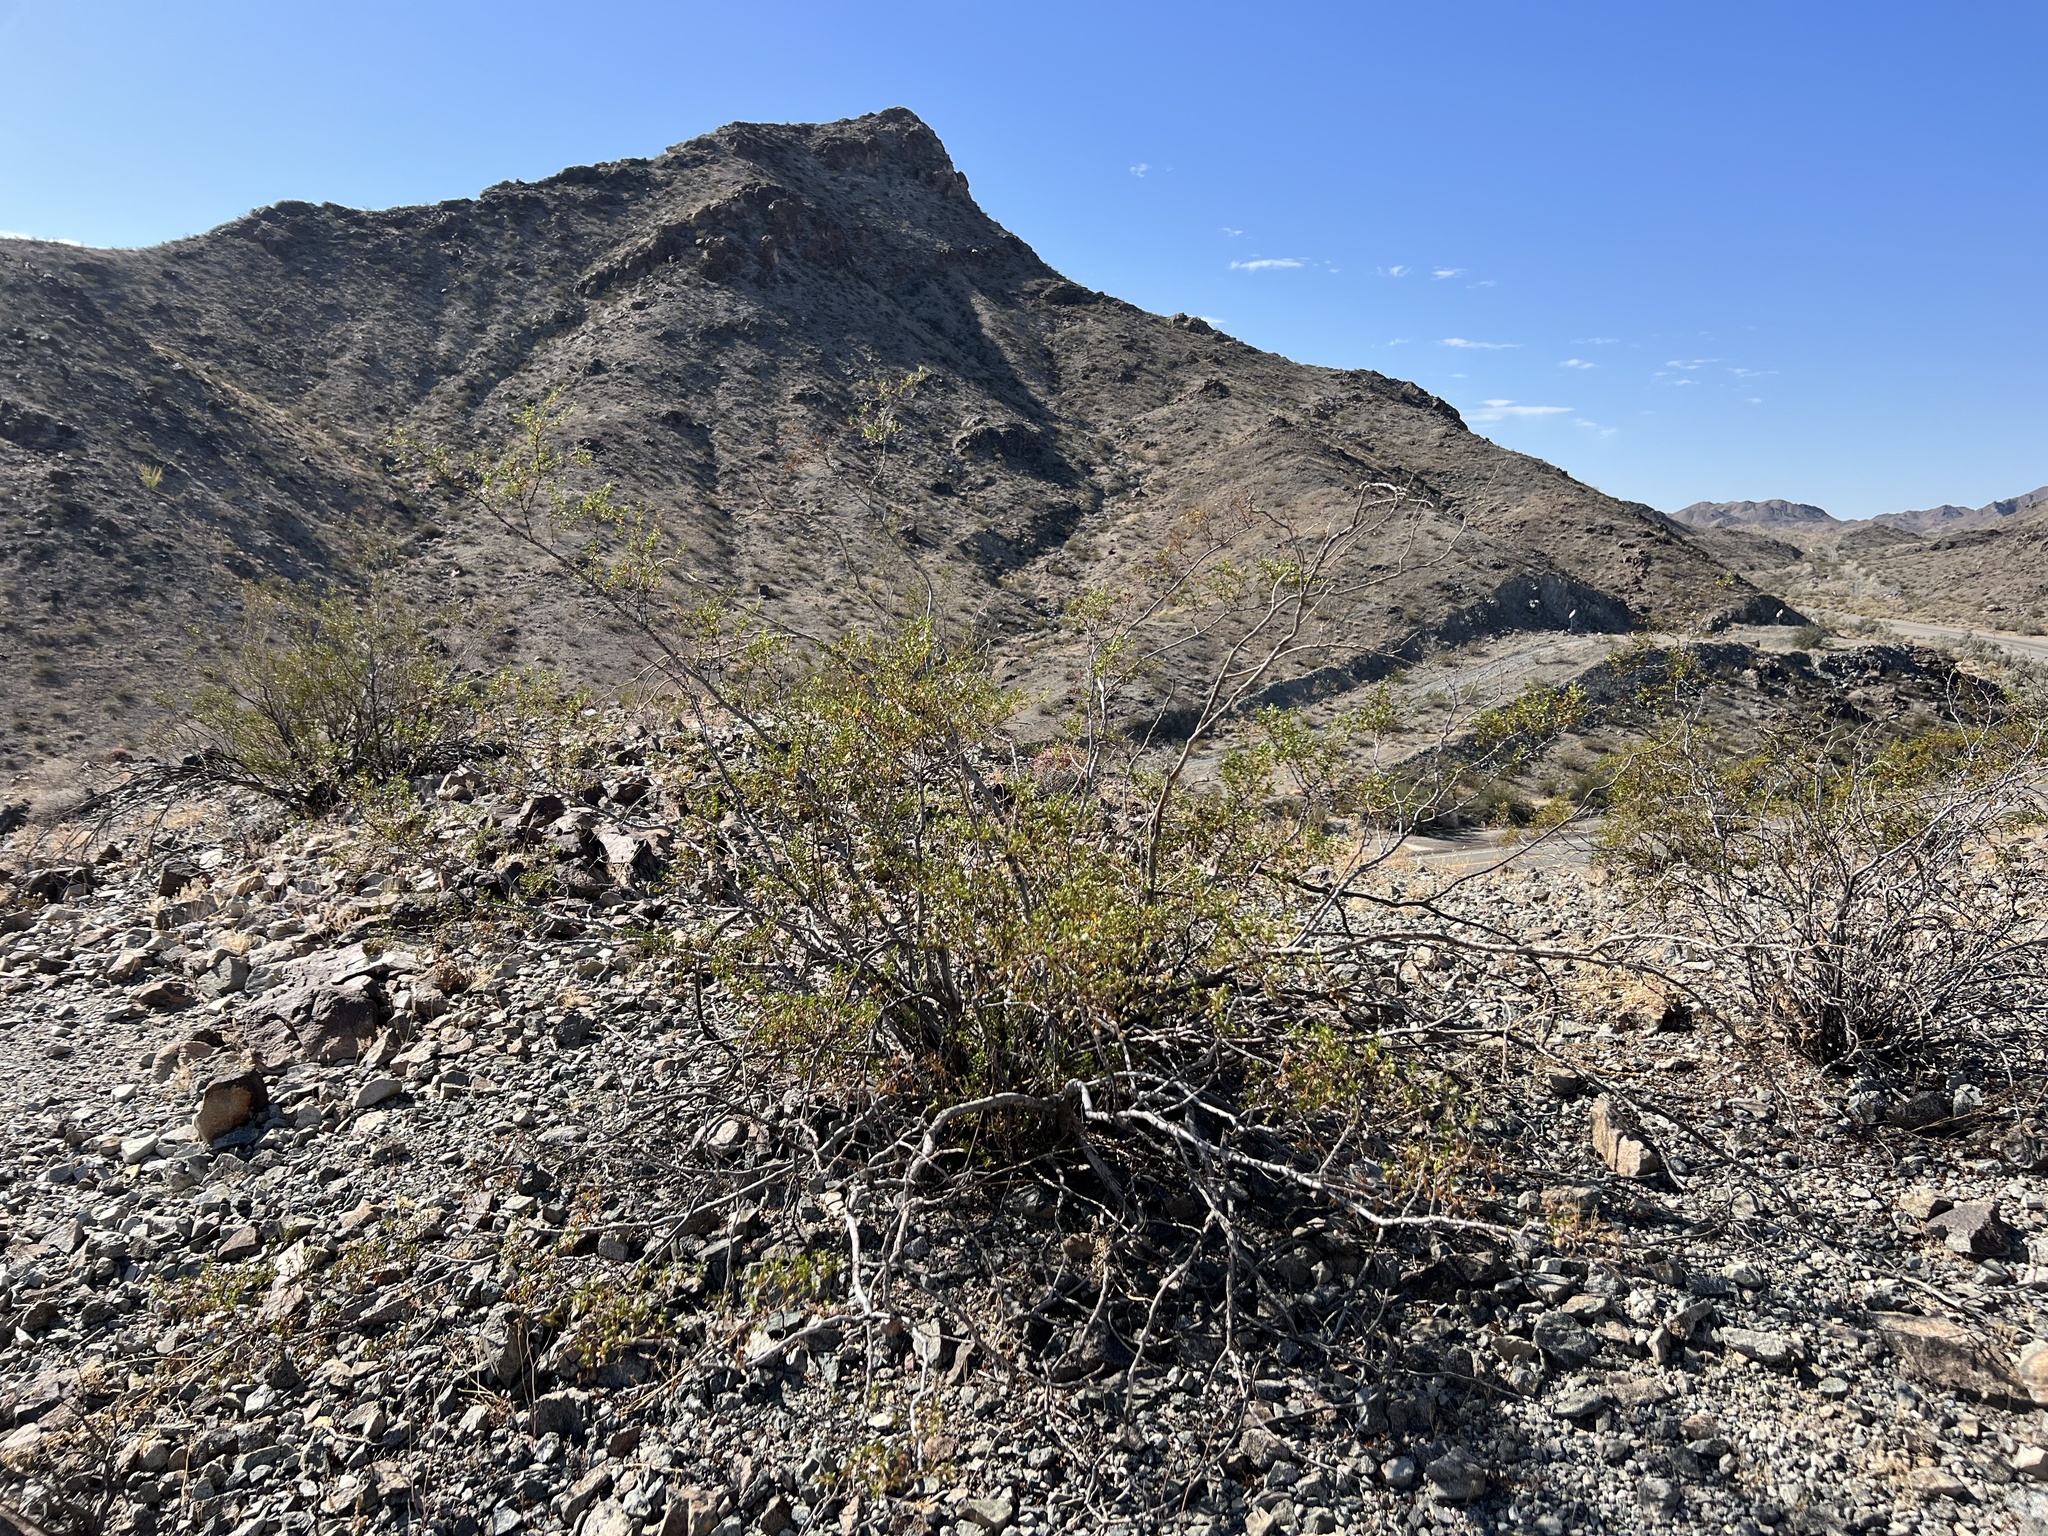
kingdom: Plantae
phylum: Tracheophyta
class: Magnoliopsida
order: Zygophyllales
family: Zygophyllaceae
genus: Larrea
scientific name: Larrea tridentata
